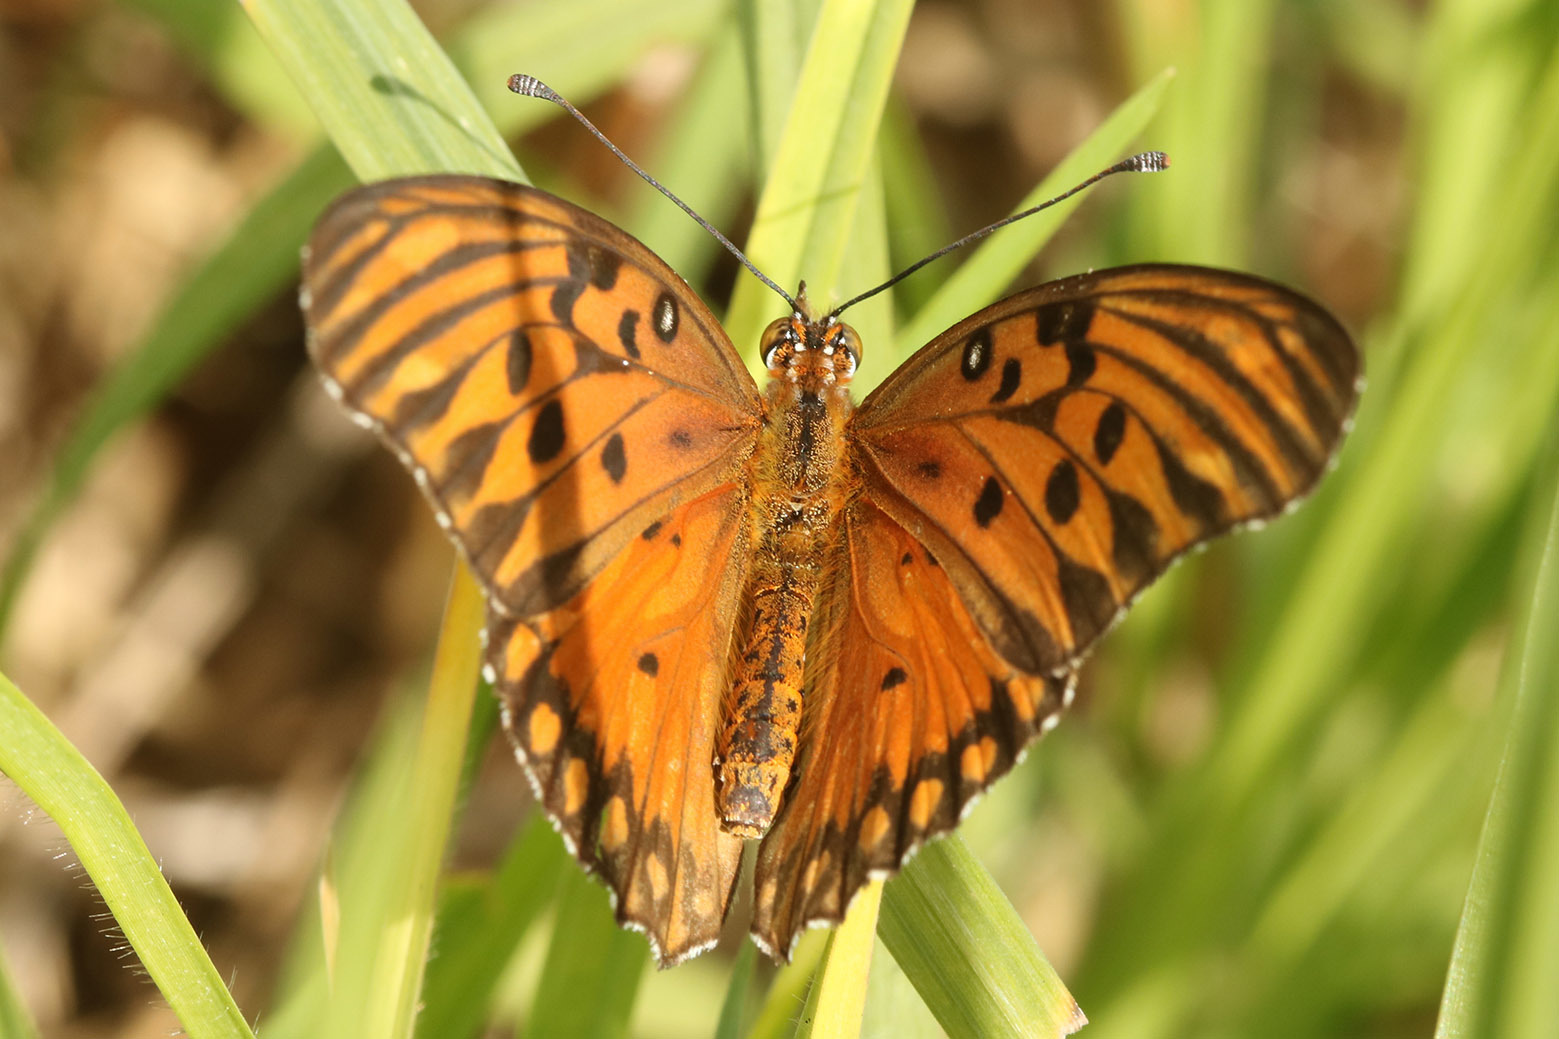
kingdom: Animalia
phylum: Arthropoda
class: Insecta
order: Lepidoptera
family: Nymphalidae
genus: Dione
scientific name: Dione vanillae
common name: Gulf fritillary
